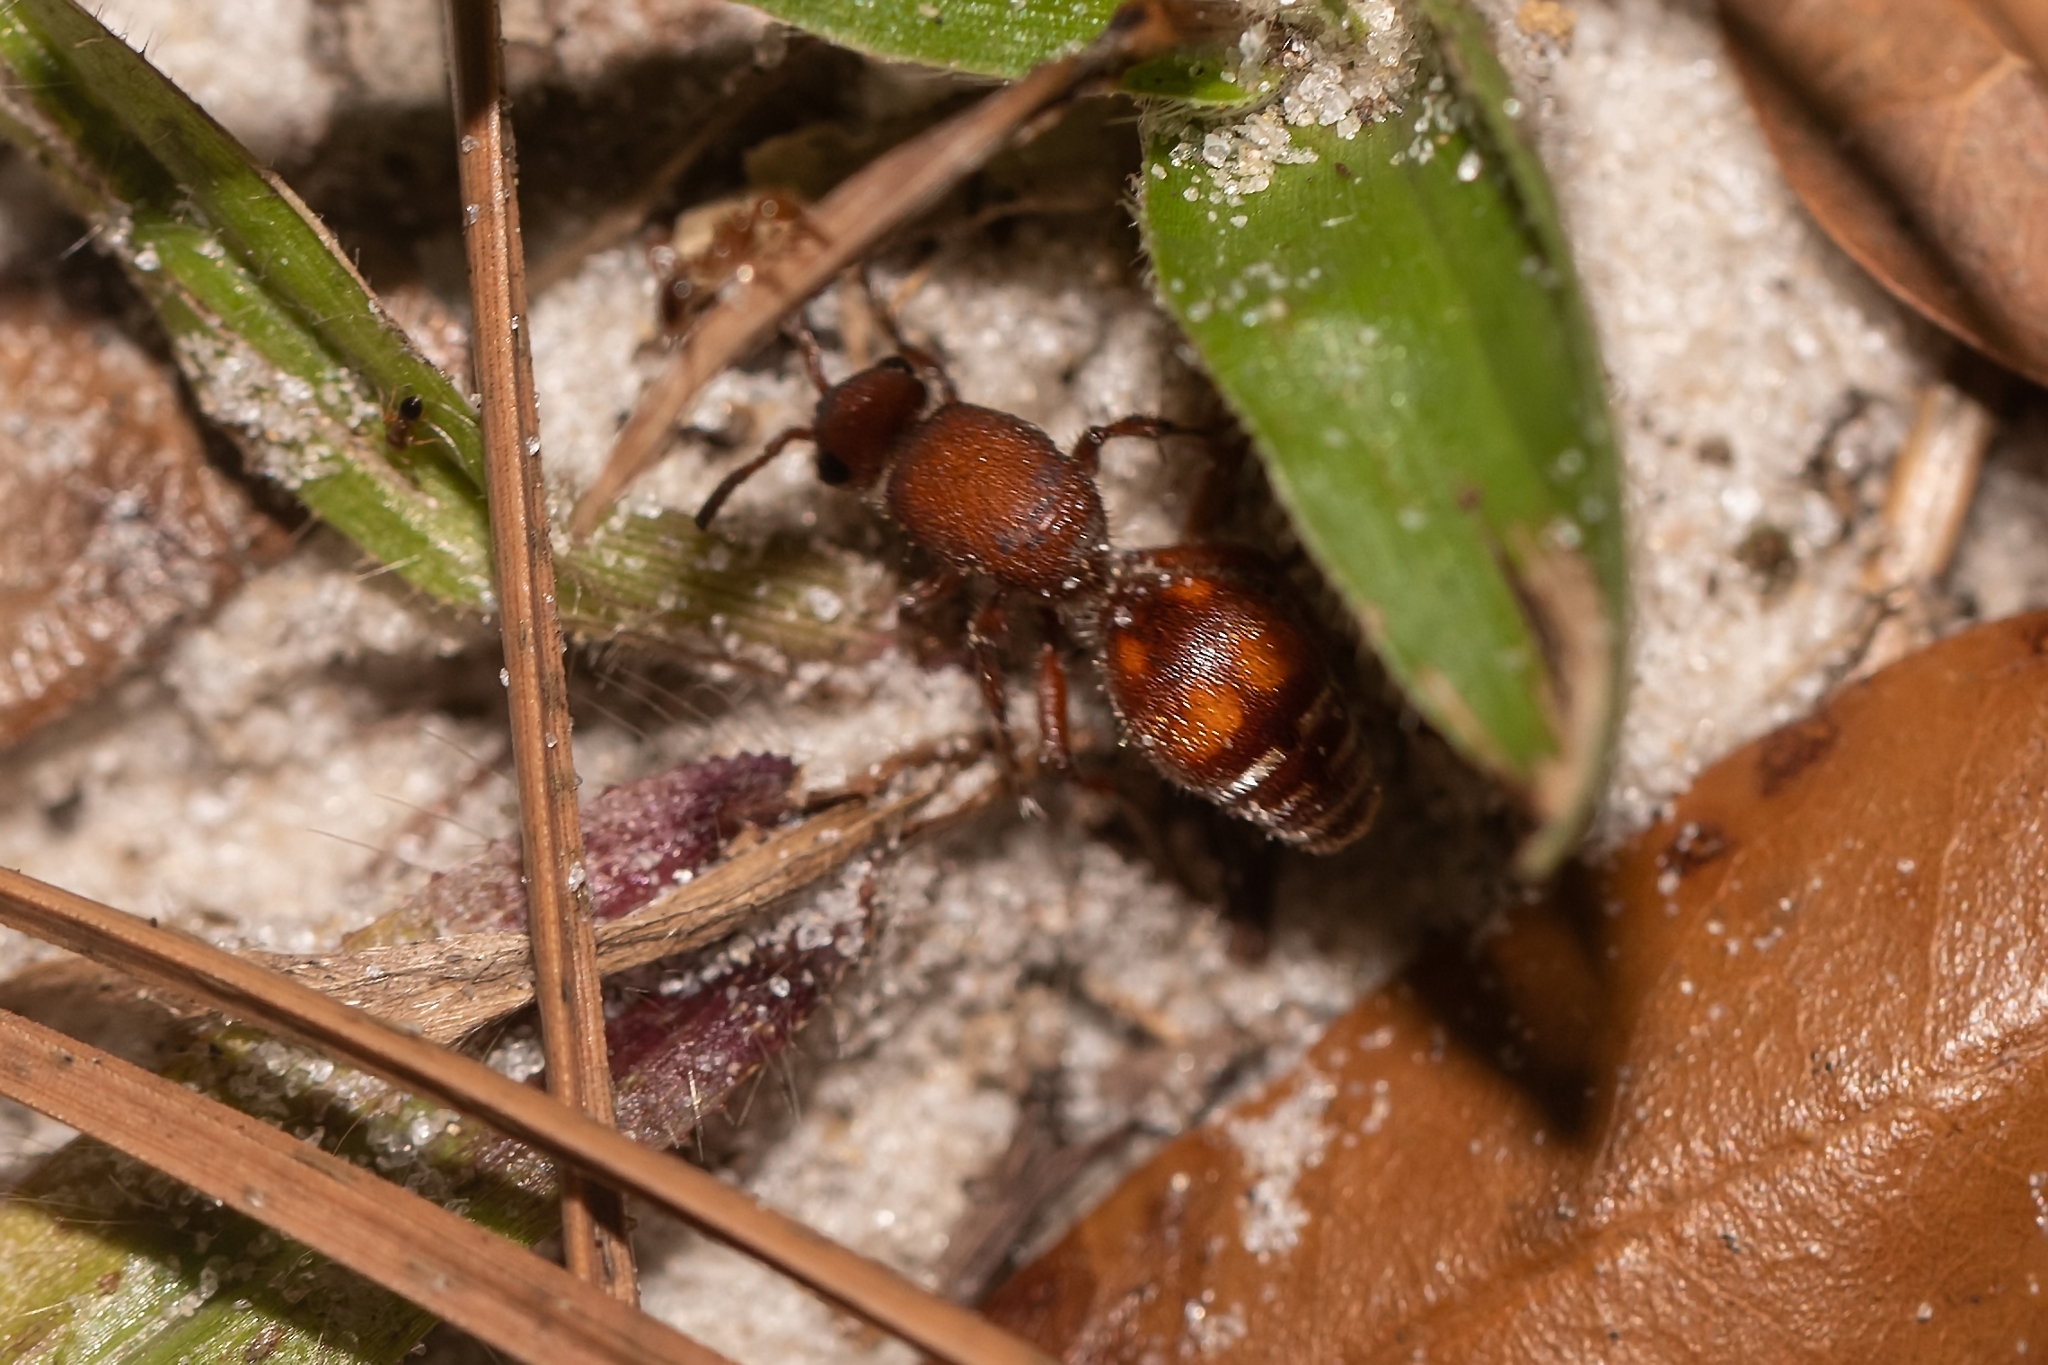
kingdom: Animalia
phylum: Arthropoda
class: Insecta
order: Hymenoptera
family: Mutillidae
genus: Dasymutilla
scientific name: Dasymutilla
